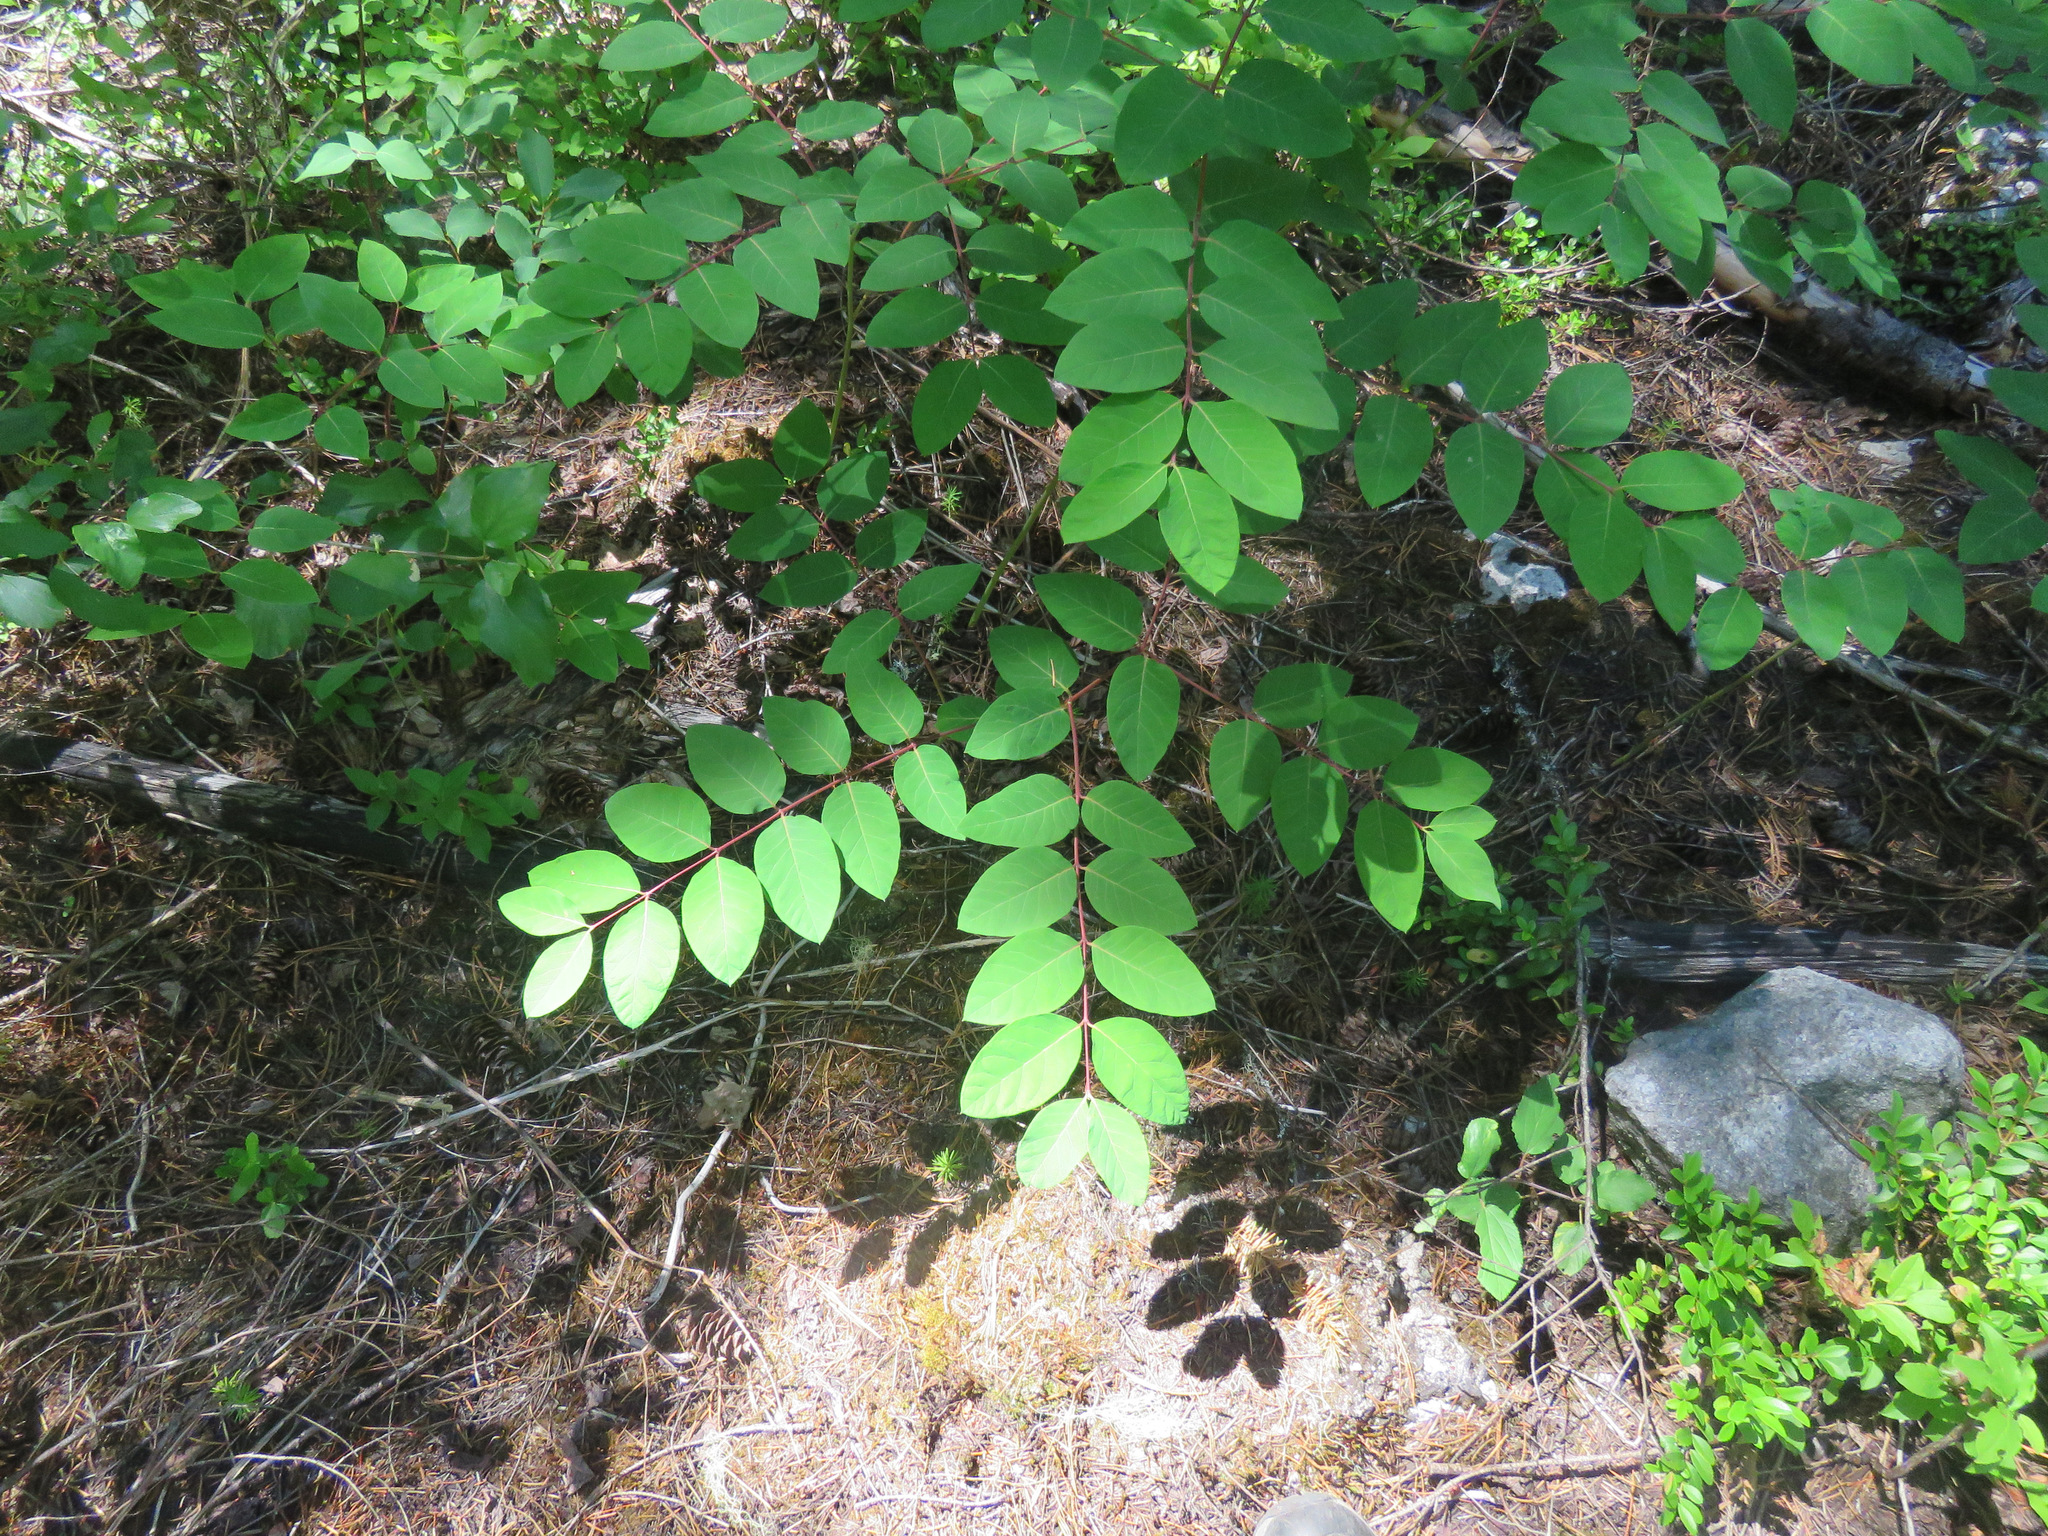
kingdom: Plantae
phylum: Tracheophyta
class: Magnoliopsida
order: Gentianales
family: Apocynaceae
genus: Apocynum
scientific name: Apocynum androsaemifolium
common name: Spreading dogbane
